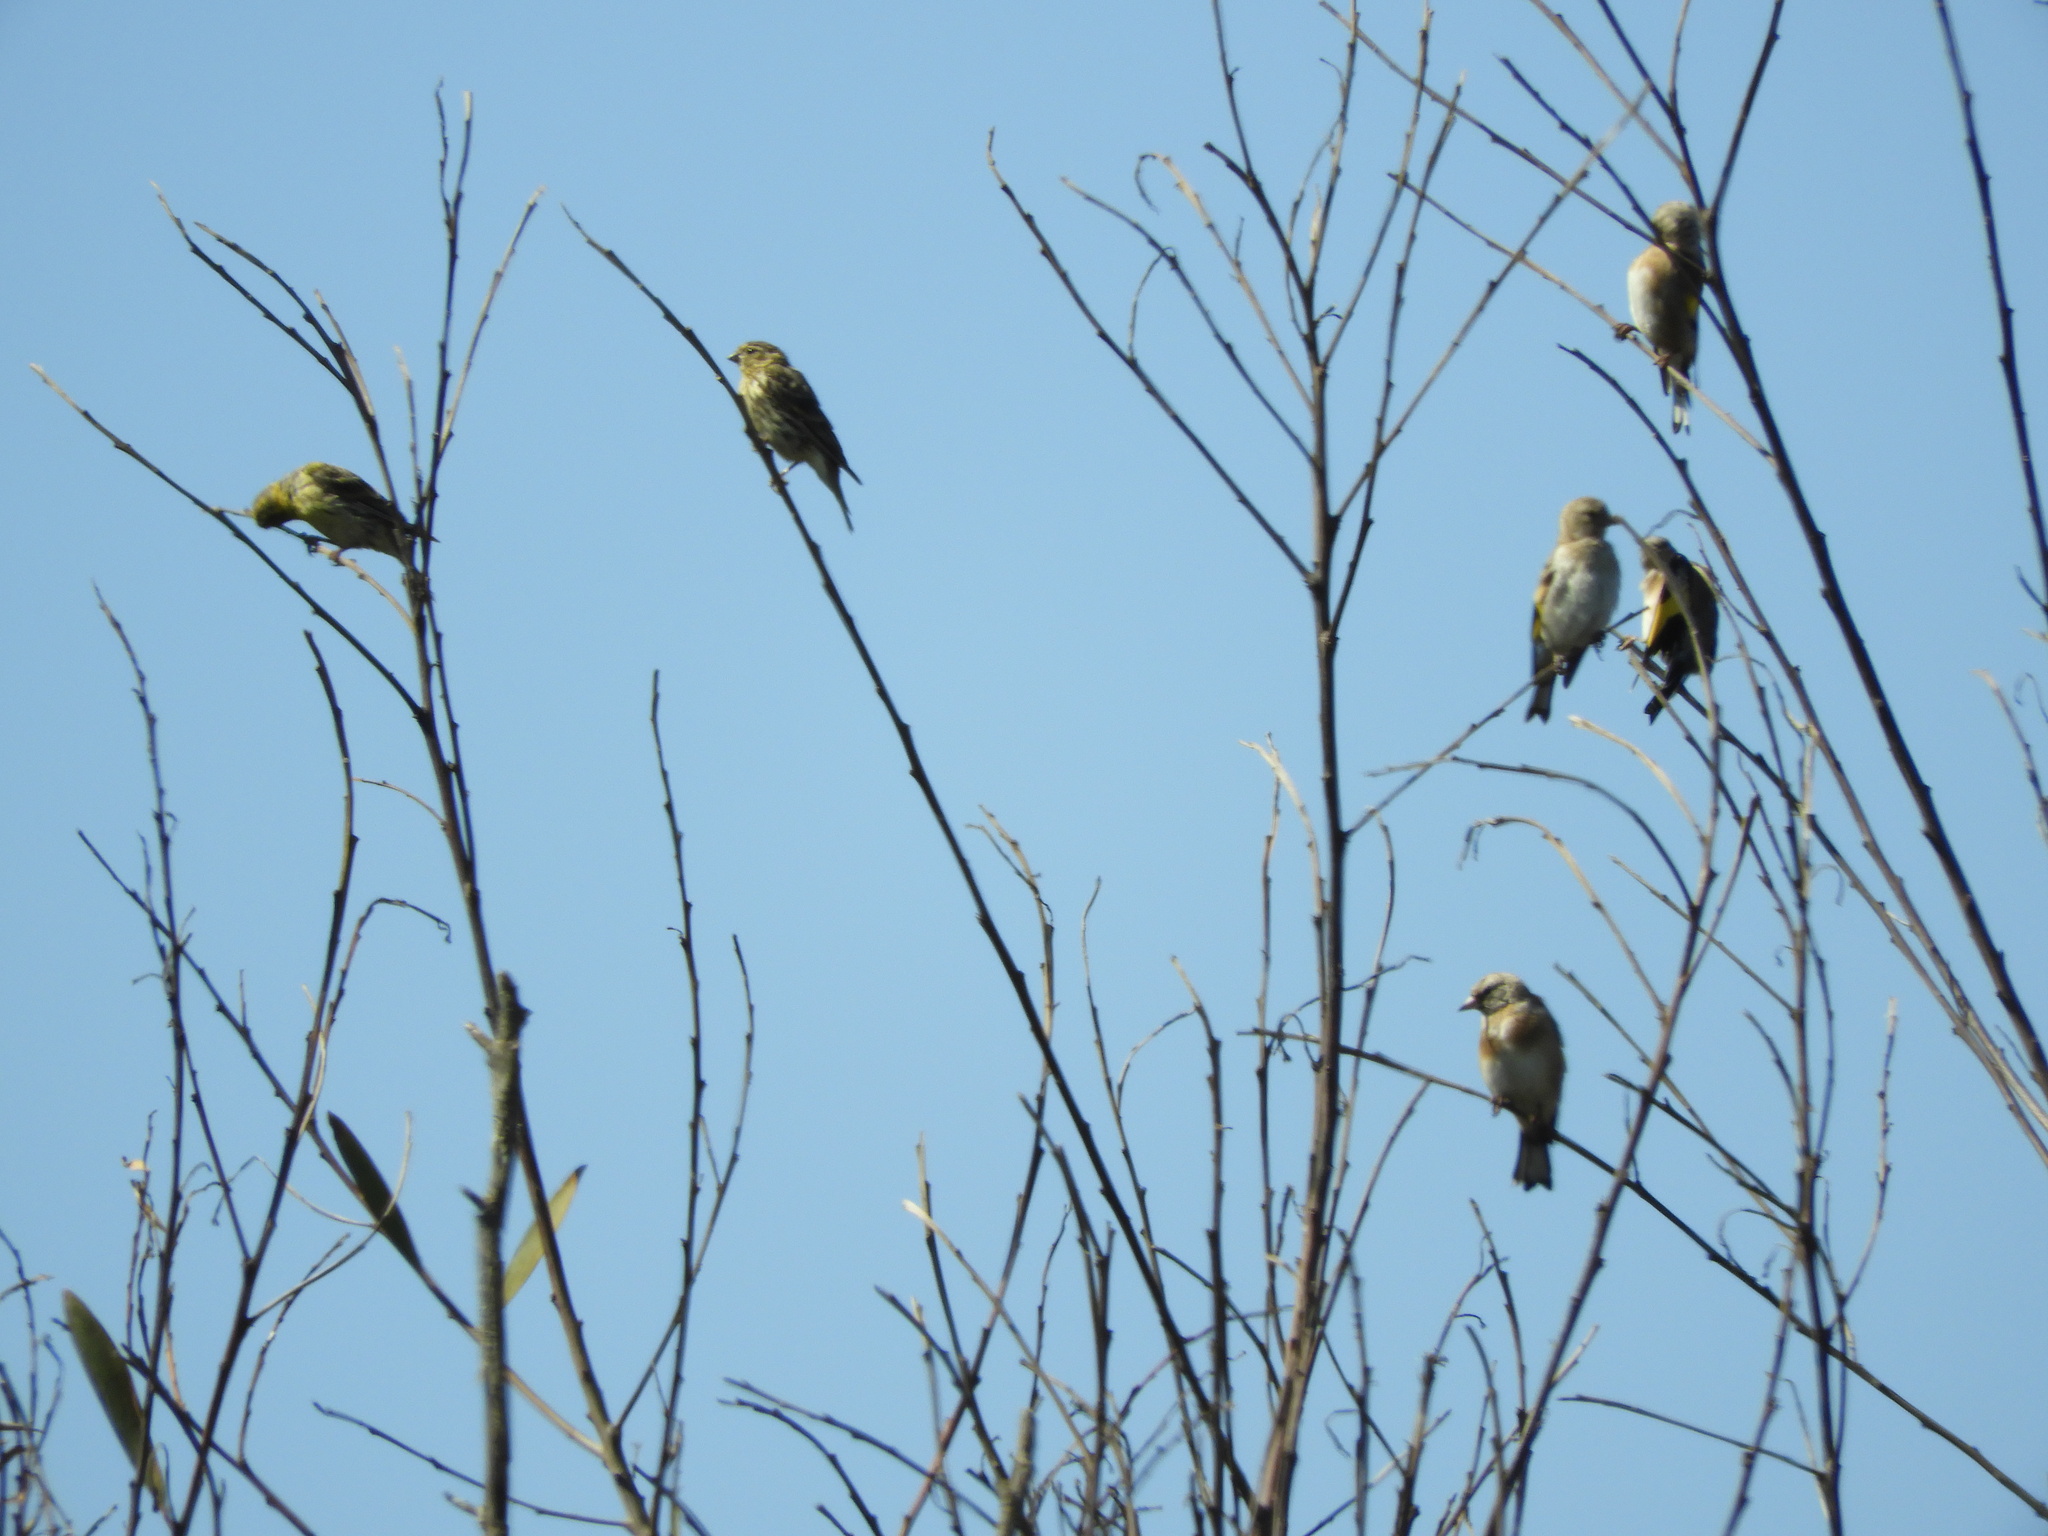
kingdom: Animalia
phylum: Chordata
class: Aves
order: Passeriformes
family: Fringillidae
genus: Serinus
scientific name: Serinus serinus
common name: European serin
